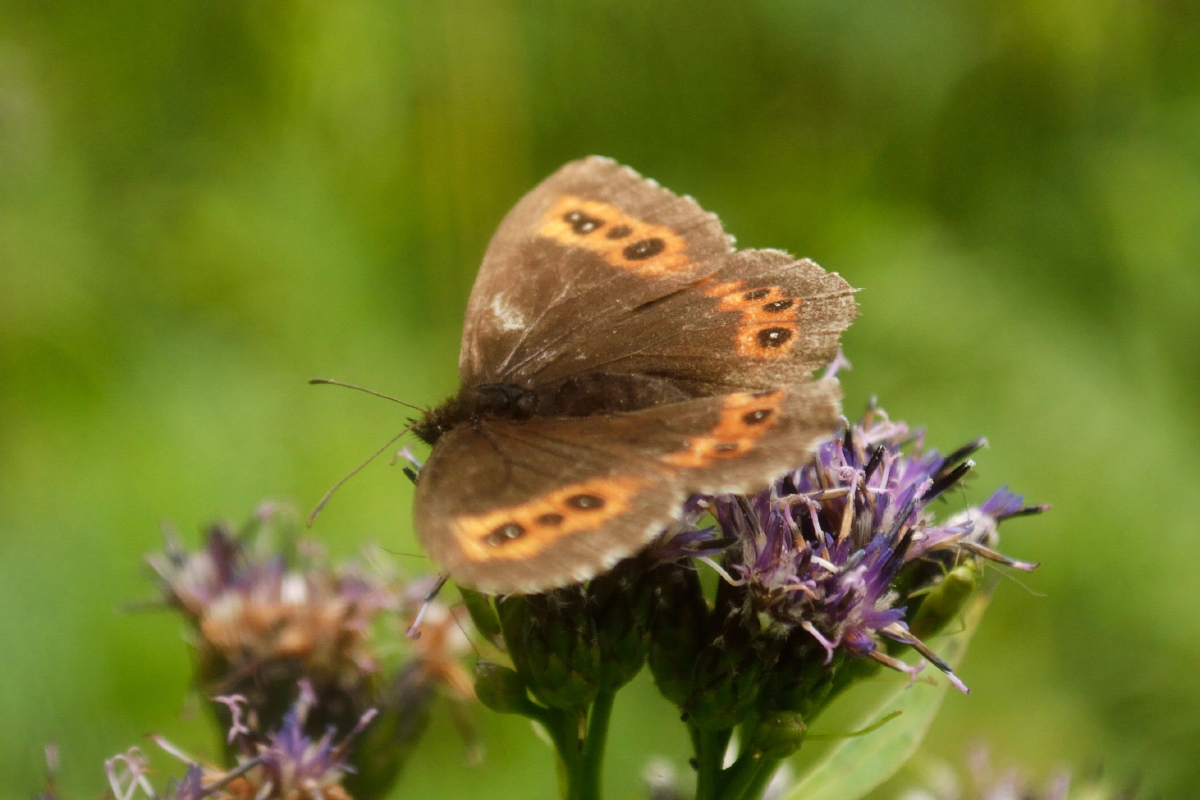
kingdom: Animalia
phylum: Arthropoda
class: Insecta
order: Lepidoptera
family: Nymphalidae
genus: Erebia
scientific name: Erebia ligea
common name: Arran brown
